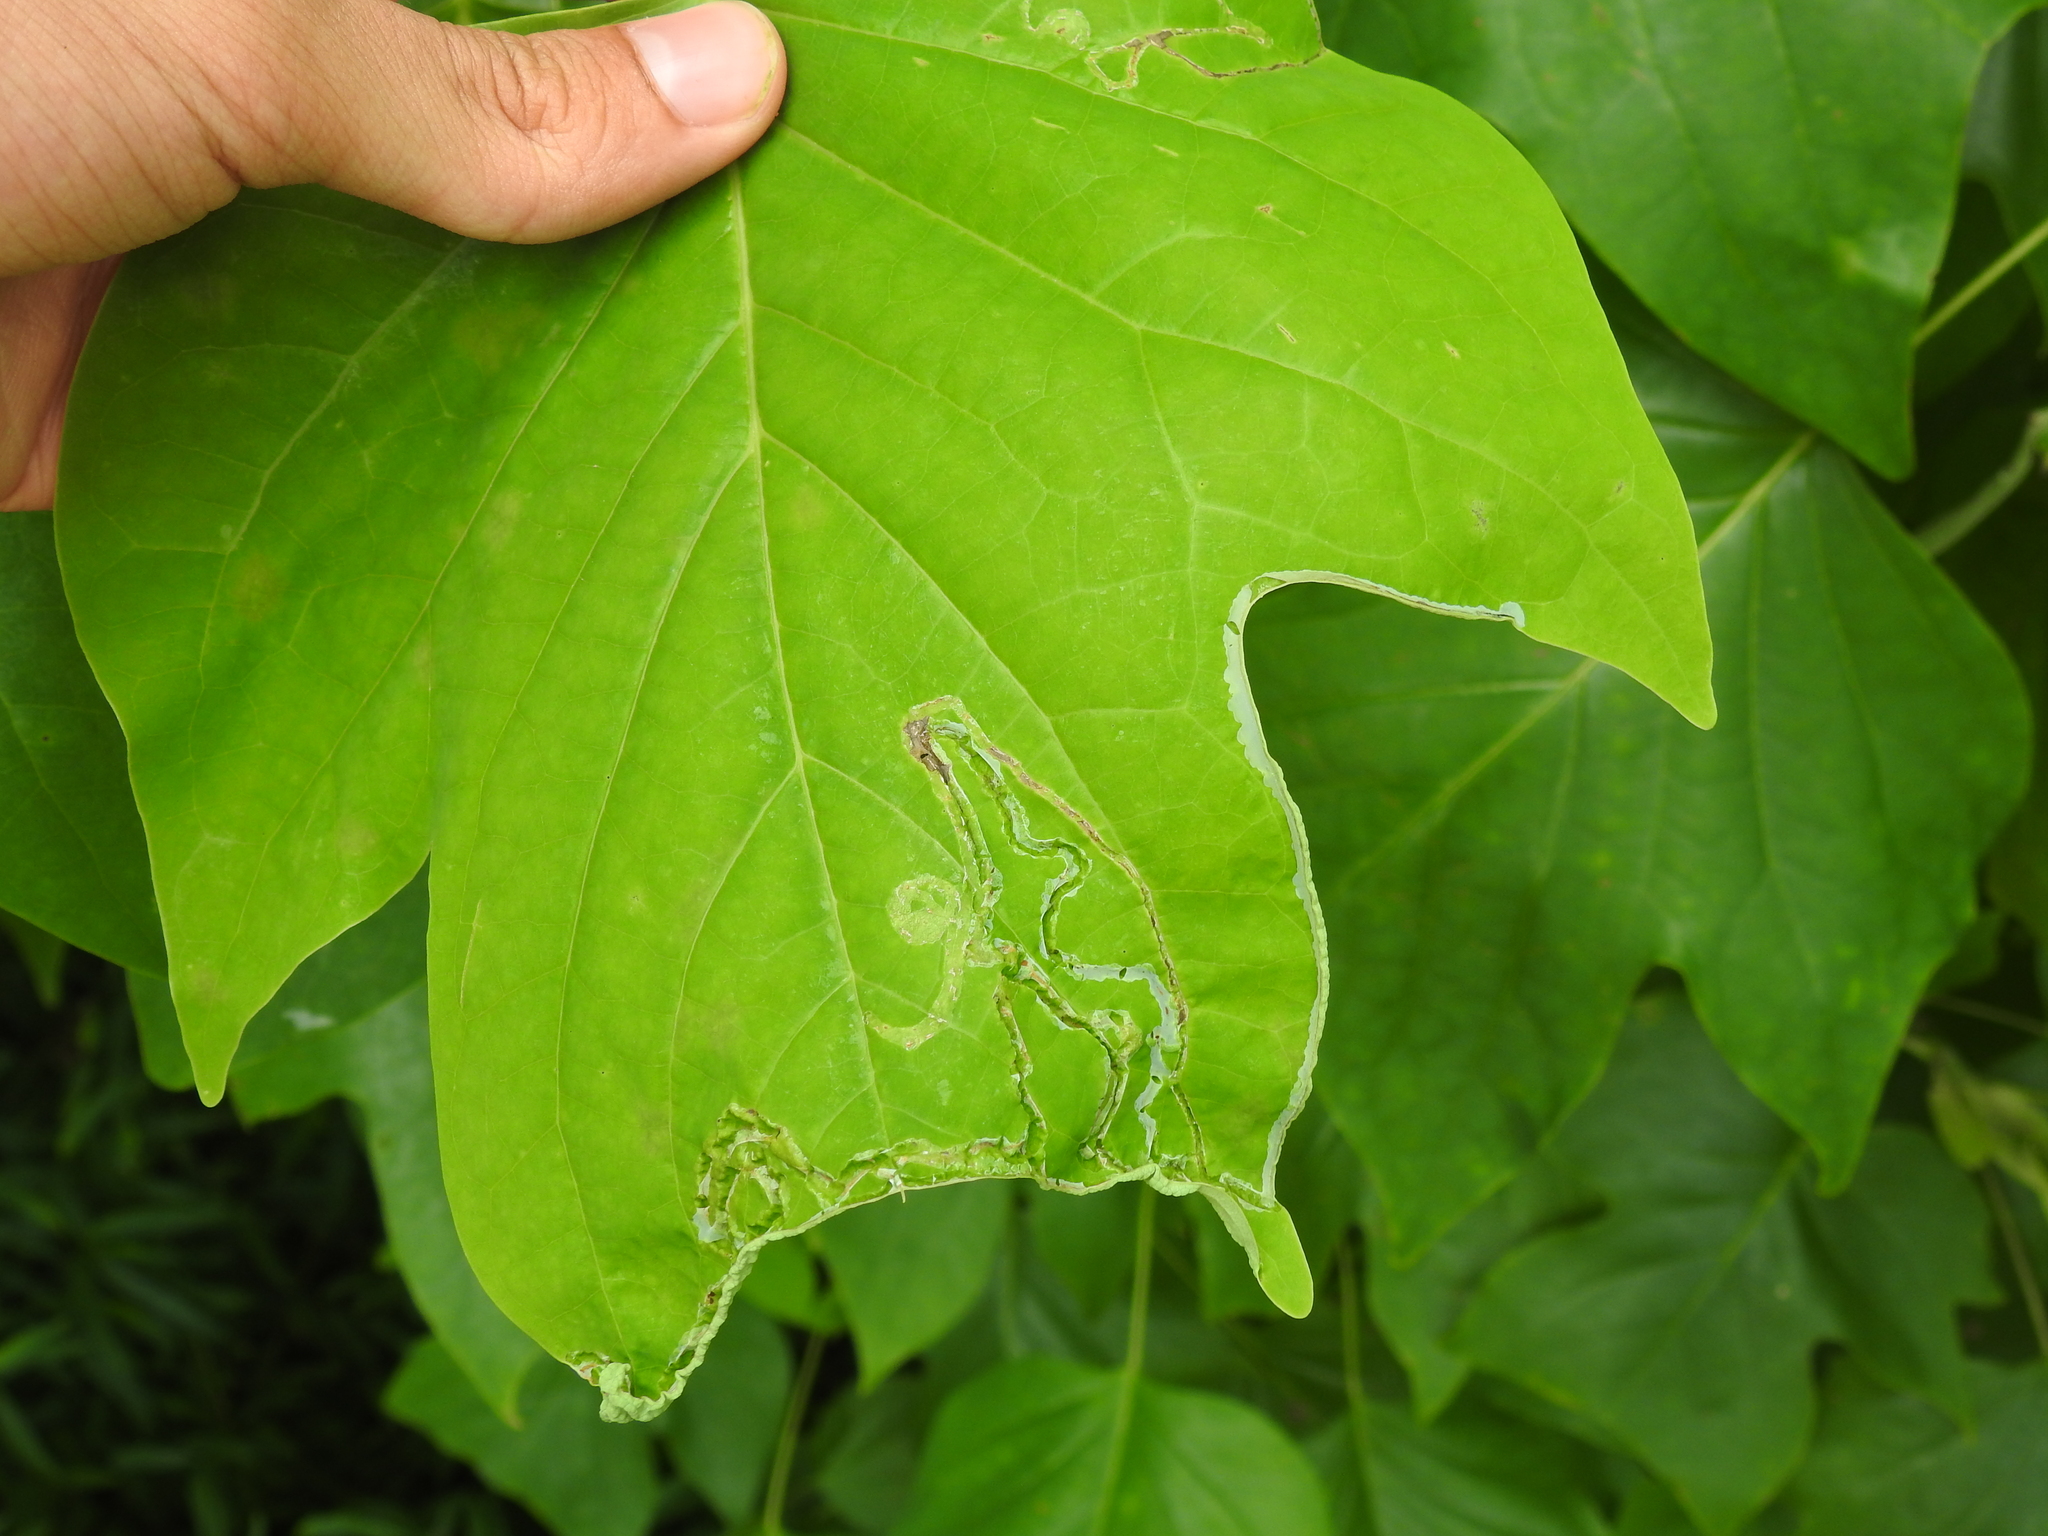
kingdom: Animalia
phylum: Arthropoda
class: Insecta
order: Lepidoptera
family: Gracillariidae
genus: Phyllocnistis
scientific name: Phyllocnistis liriodendronella
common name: Tulip tree leaf miner
